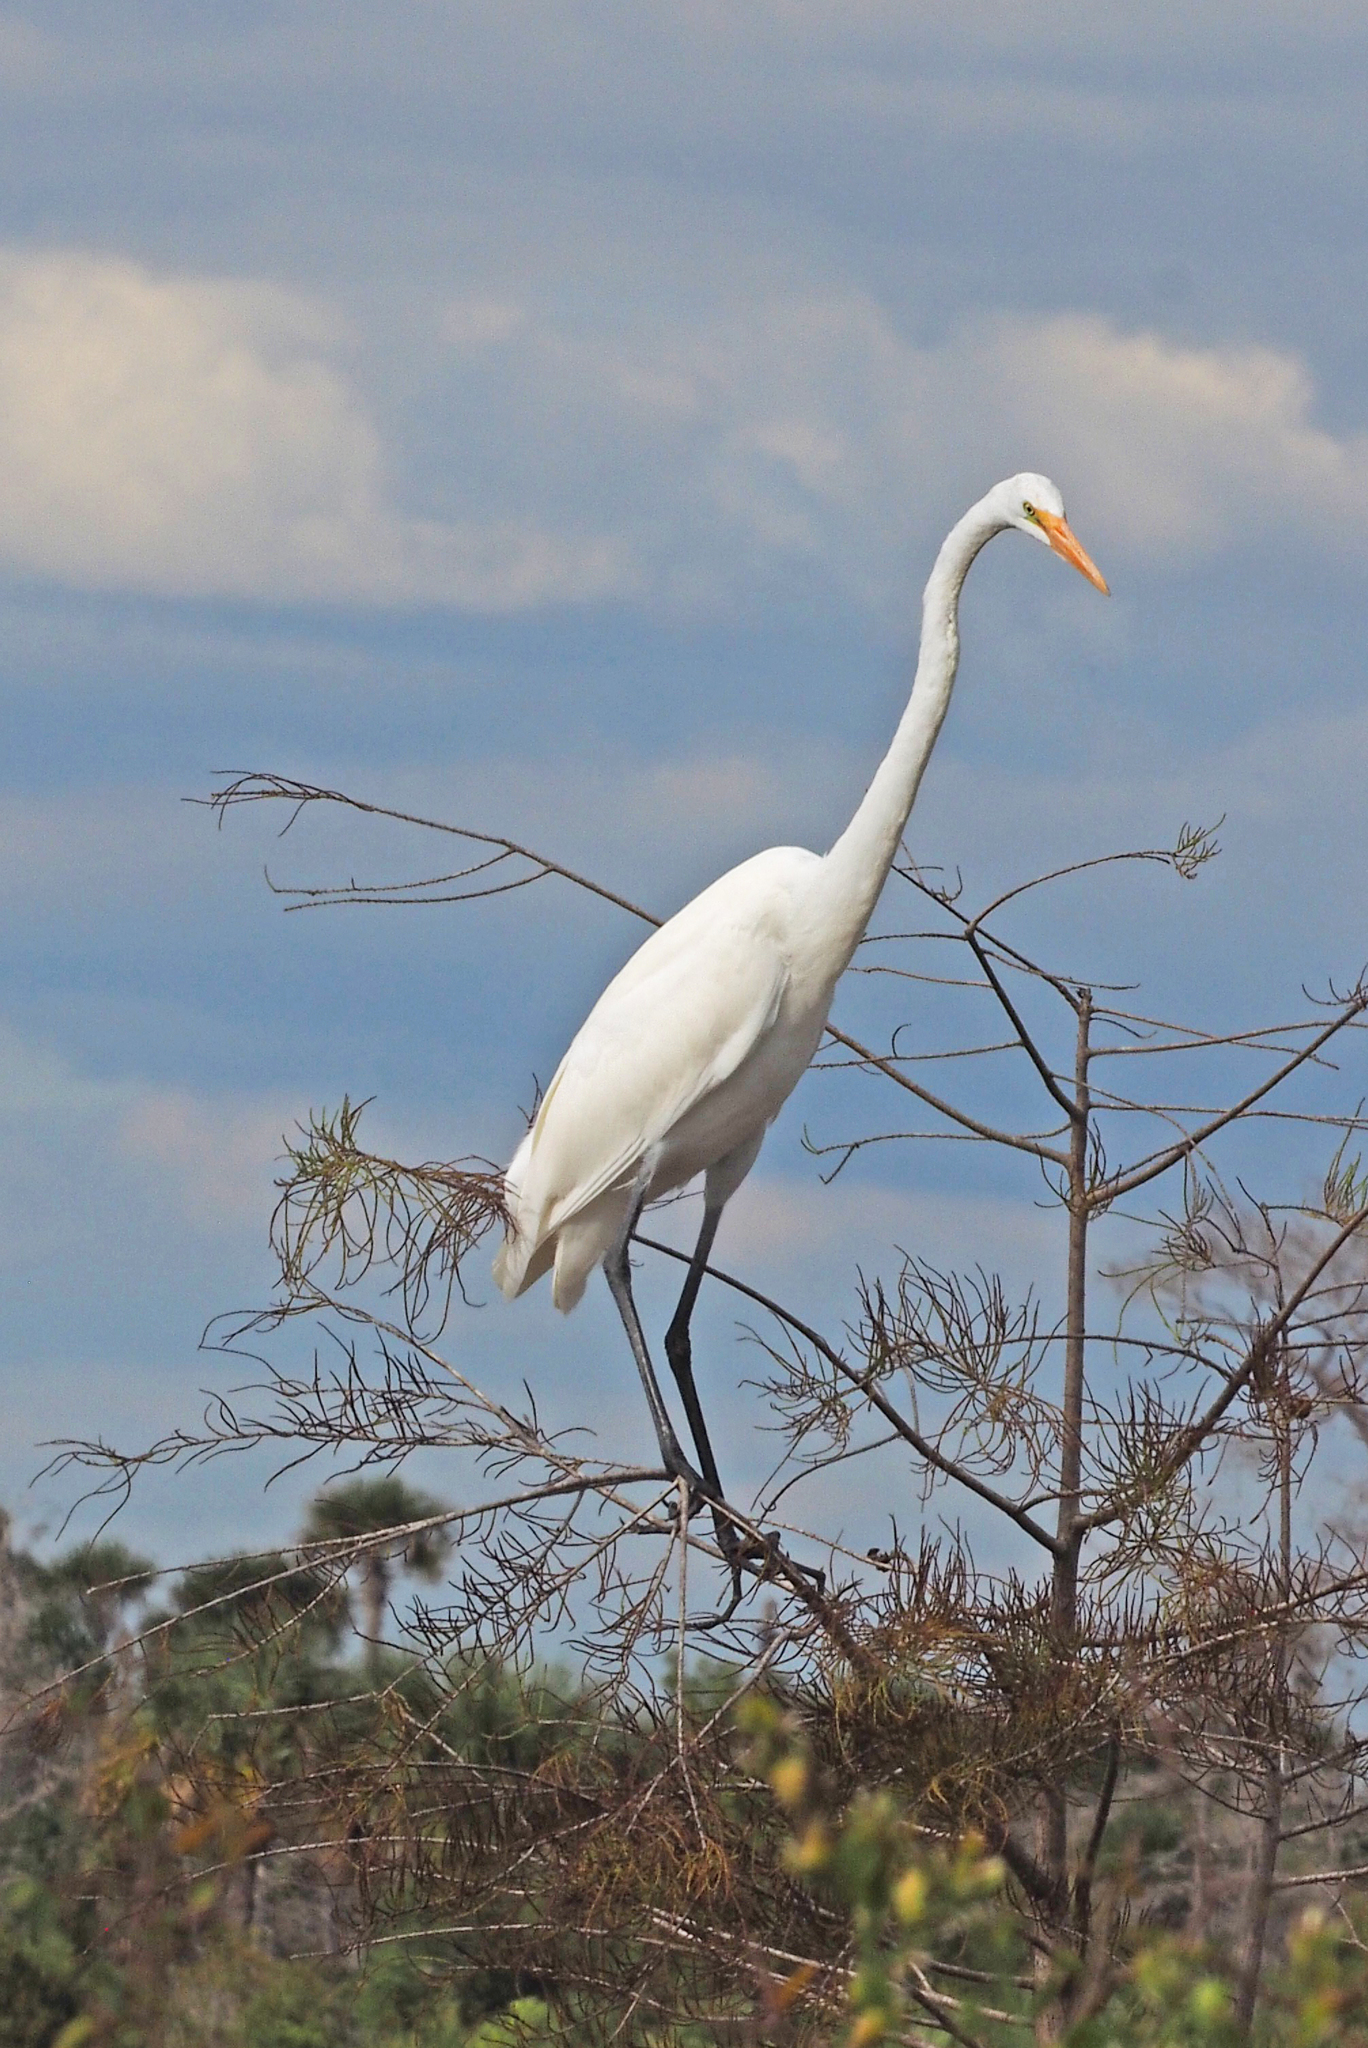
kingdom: Animalia
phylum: Chordata
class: Aves
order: Pelecaniformes
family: Ardeidae
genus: Ardea
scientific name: Ardea alba
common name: Great egret
